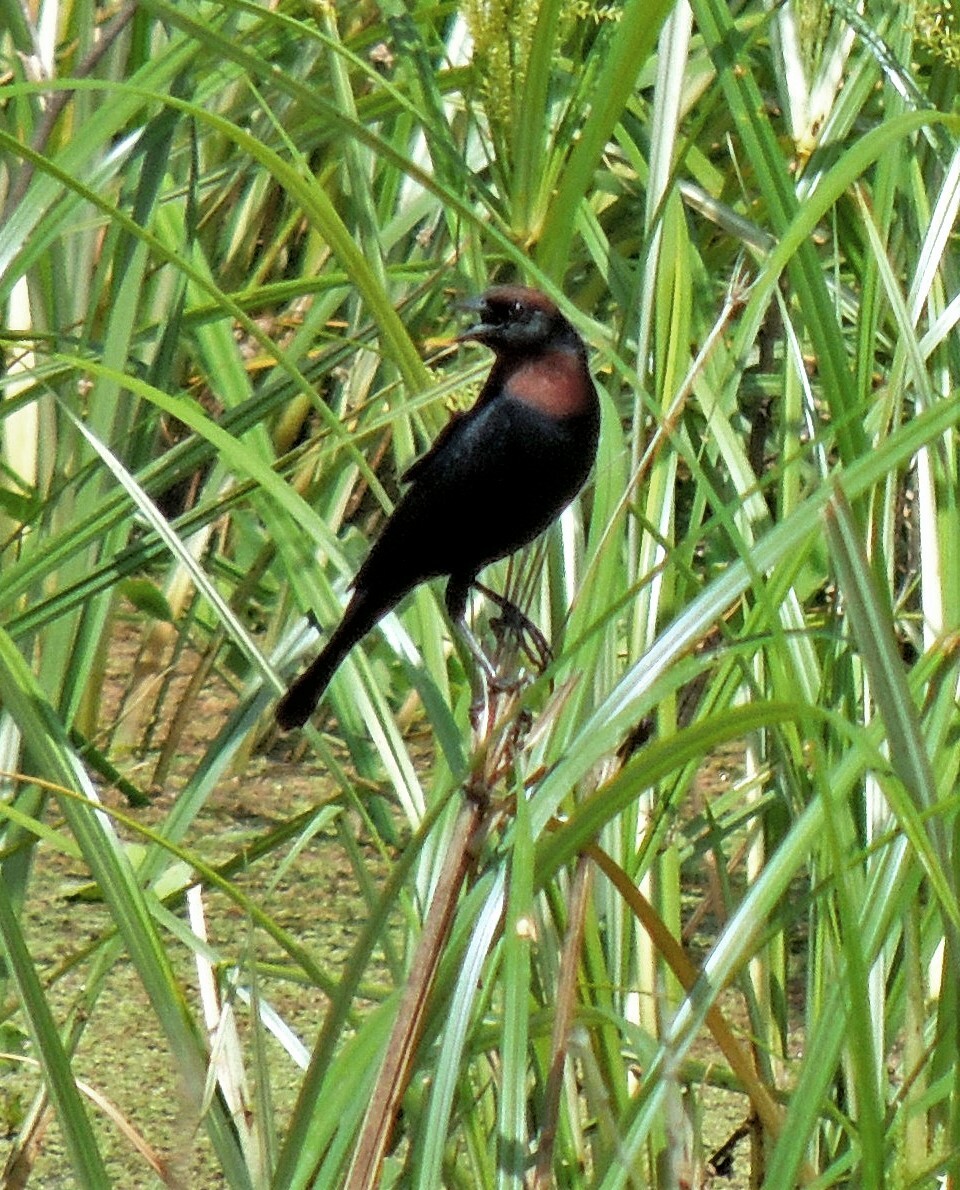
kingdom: Animalia
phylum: Chordata
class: Aves
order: Passeriformes
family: Icteridae
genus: Chrysomus
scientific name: Chrysomus ruficapillus
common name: Chestnut-capped blackbird
